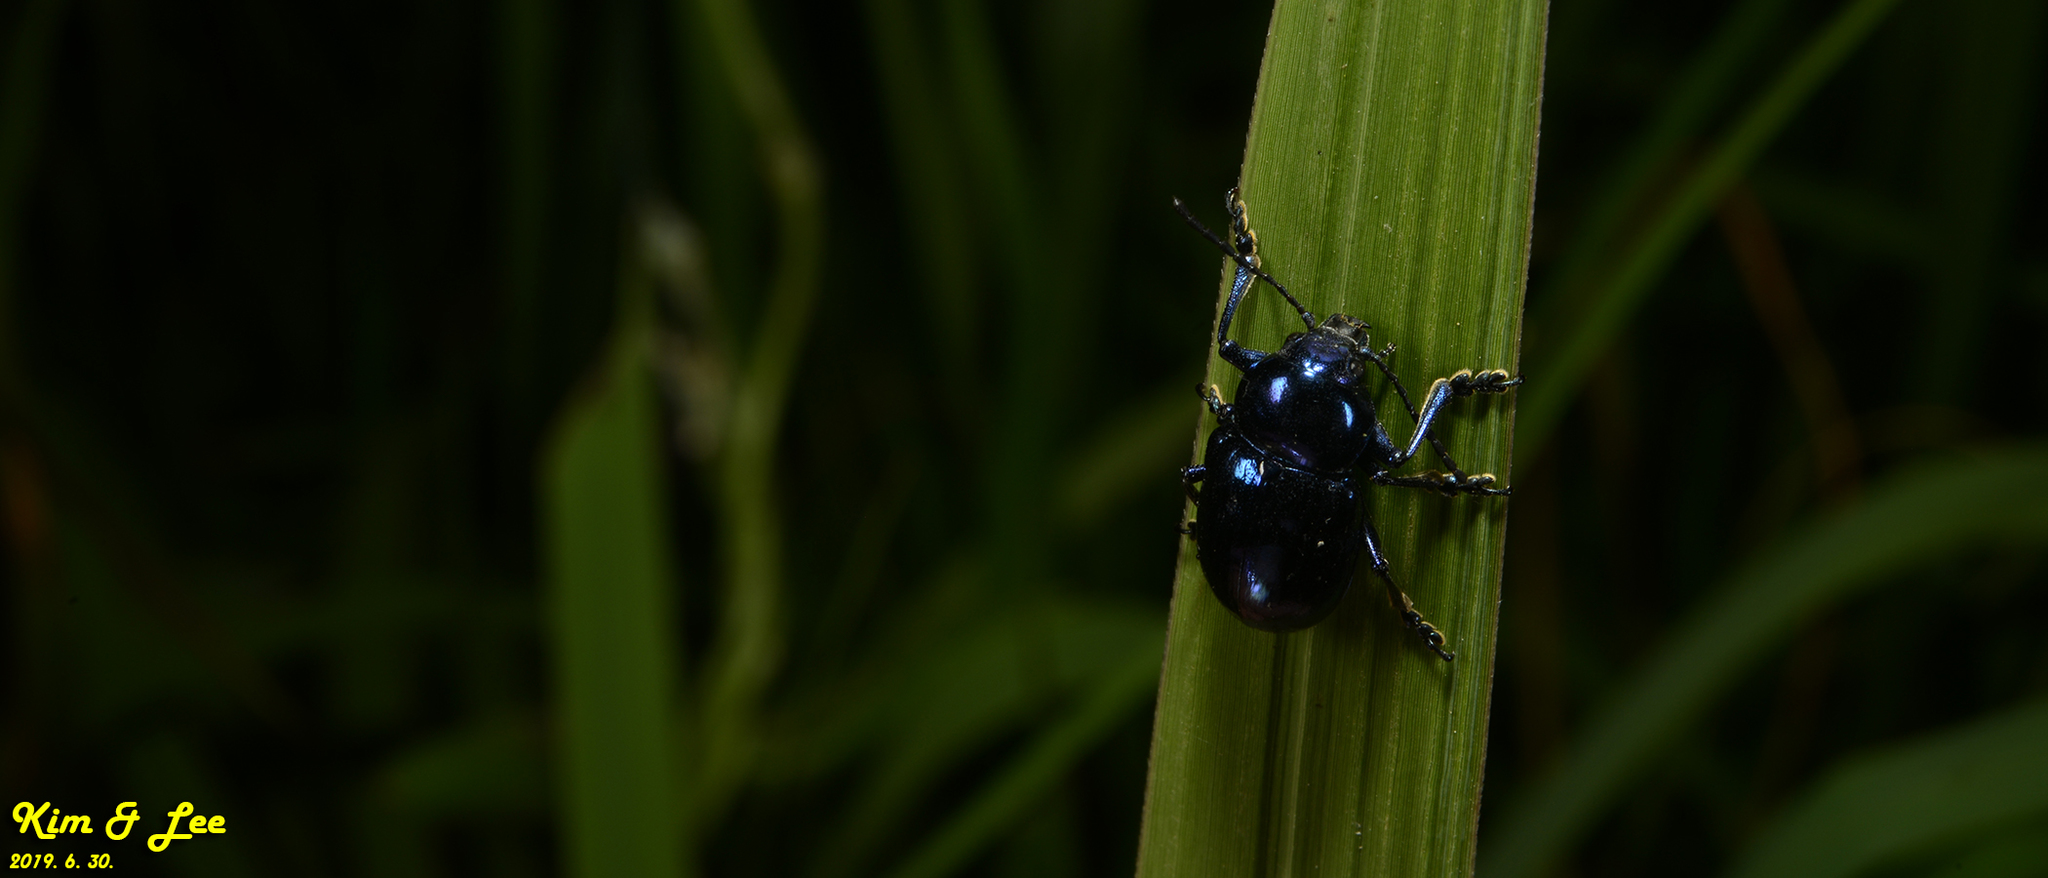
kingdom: Animalia
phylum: Arthropoda
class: Insecta
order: Coleoptera
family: Chrysomelidae
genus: Chrysochus
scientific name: Chrysochus chinensis
